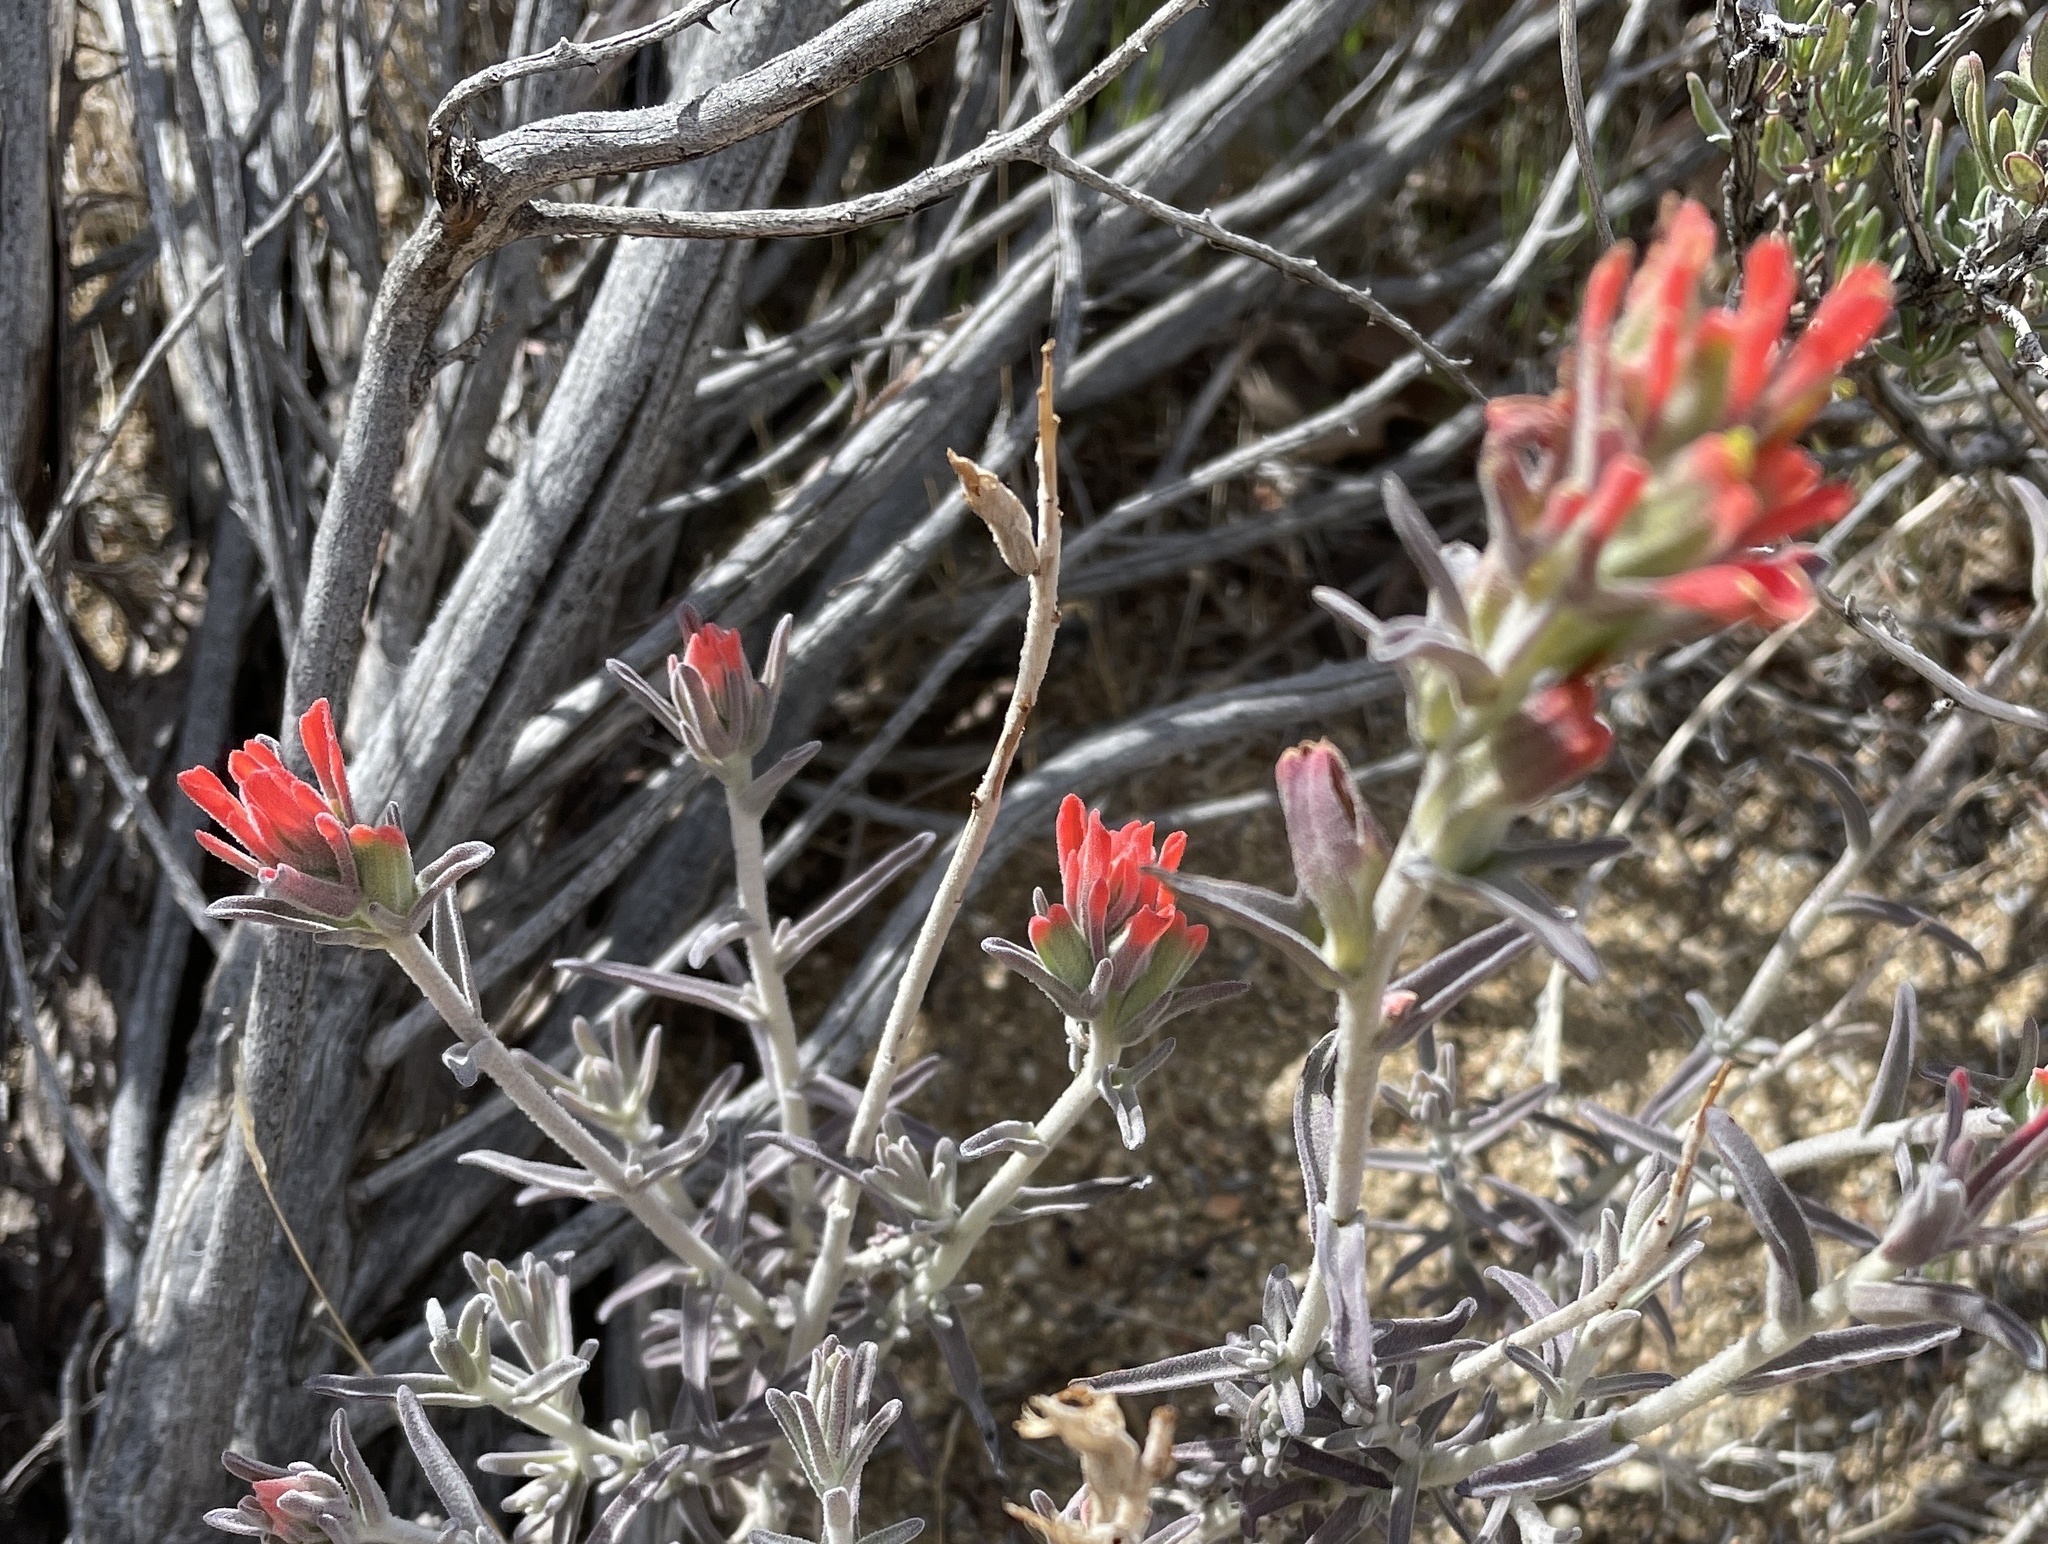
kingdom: Plantae
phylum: Tracheophyta
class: Magnoliopsida
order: Lamiales
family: Orobanchaceae
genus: Castilleja
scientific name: Castilleja foliolosa
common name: Woolly indian paintbrush
